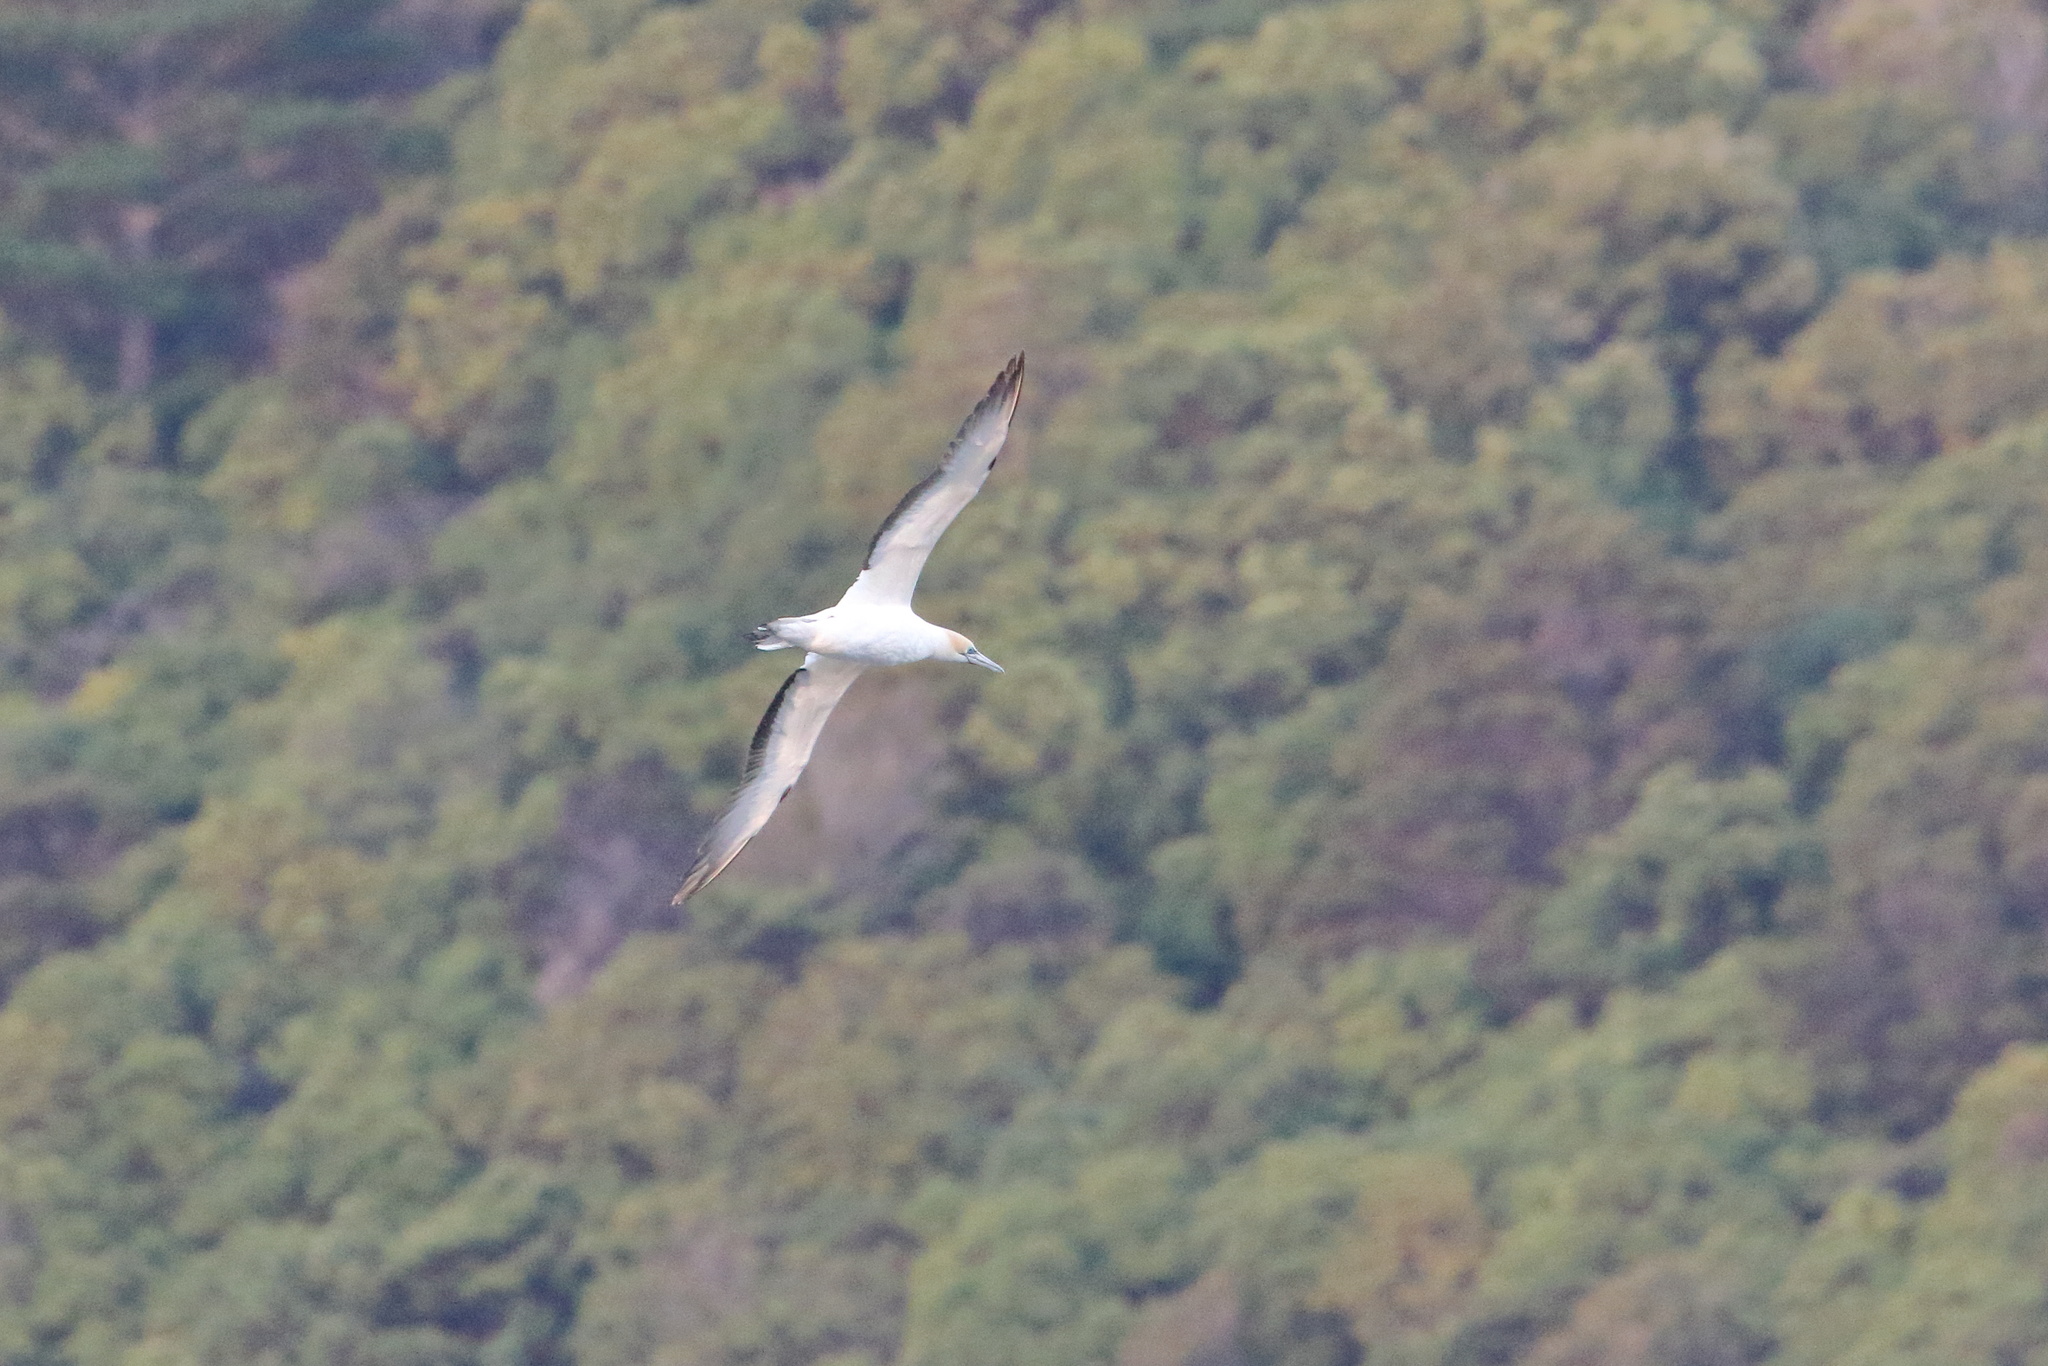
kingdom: Animalia
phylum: Chordata
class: Aves
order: Suliformes
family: Sulidae
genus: Morus
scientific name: Morus serrator
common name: Australasian gannet
